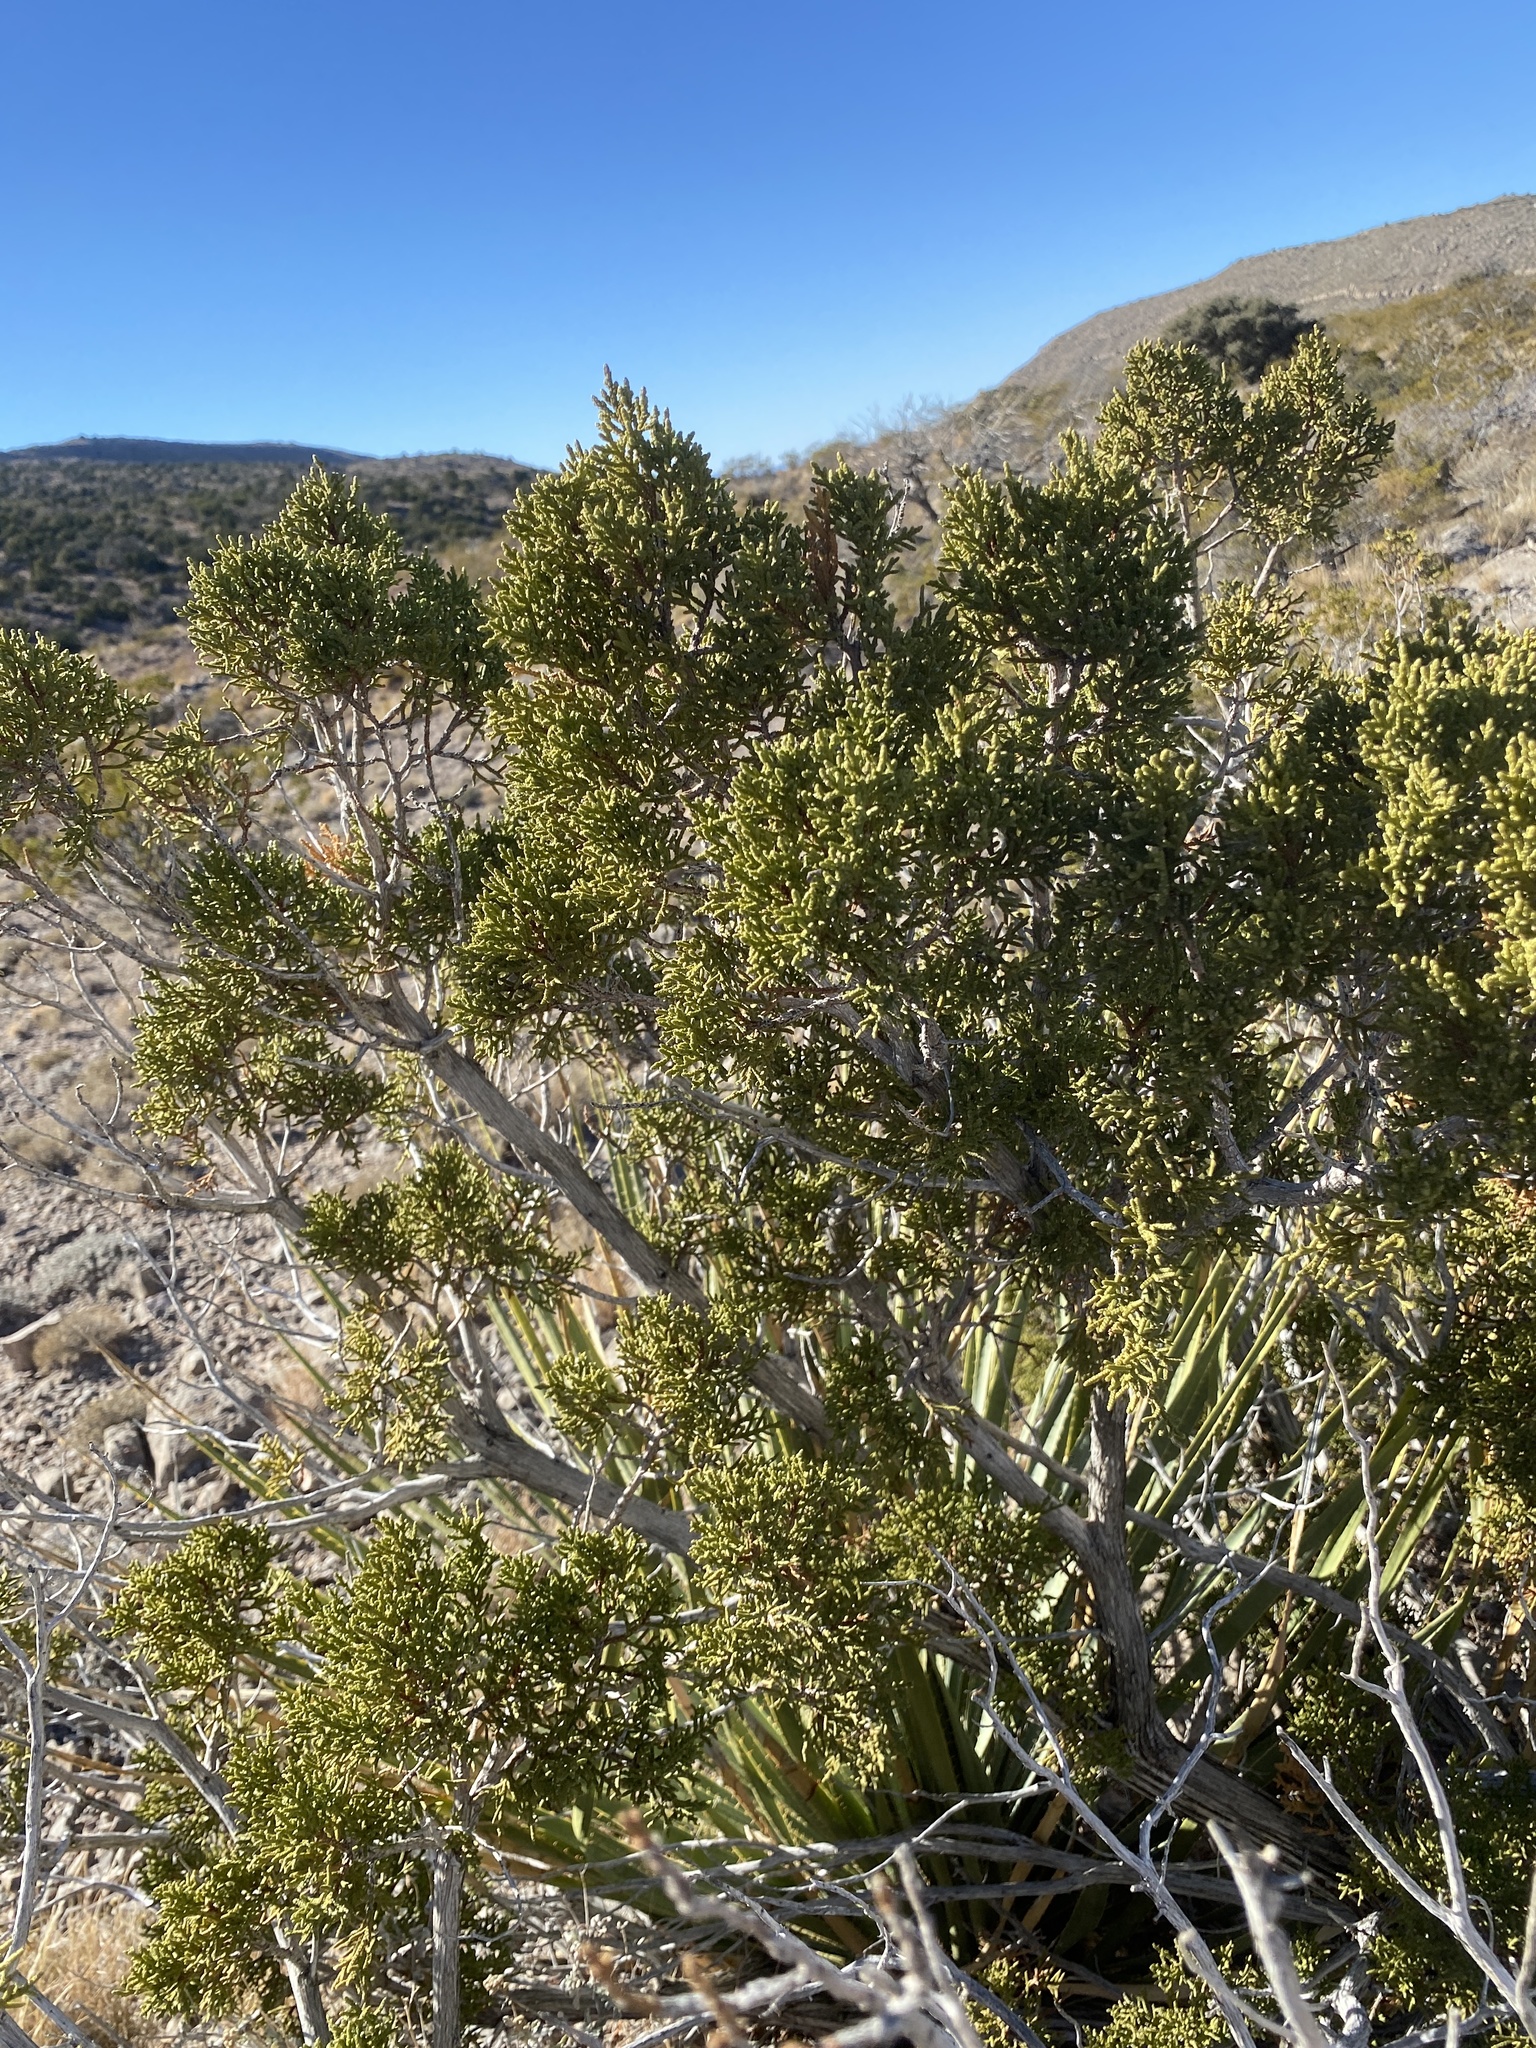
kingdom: Plantae
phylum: Tracheophyta
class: Pinopsida
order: Pinales
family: Cupressaceae
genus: Juniperus
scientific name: Juniperus monosperma
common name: One-seed juniper
